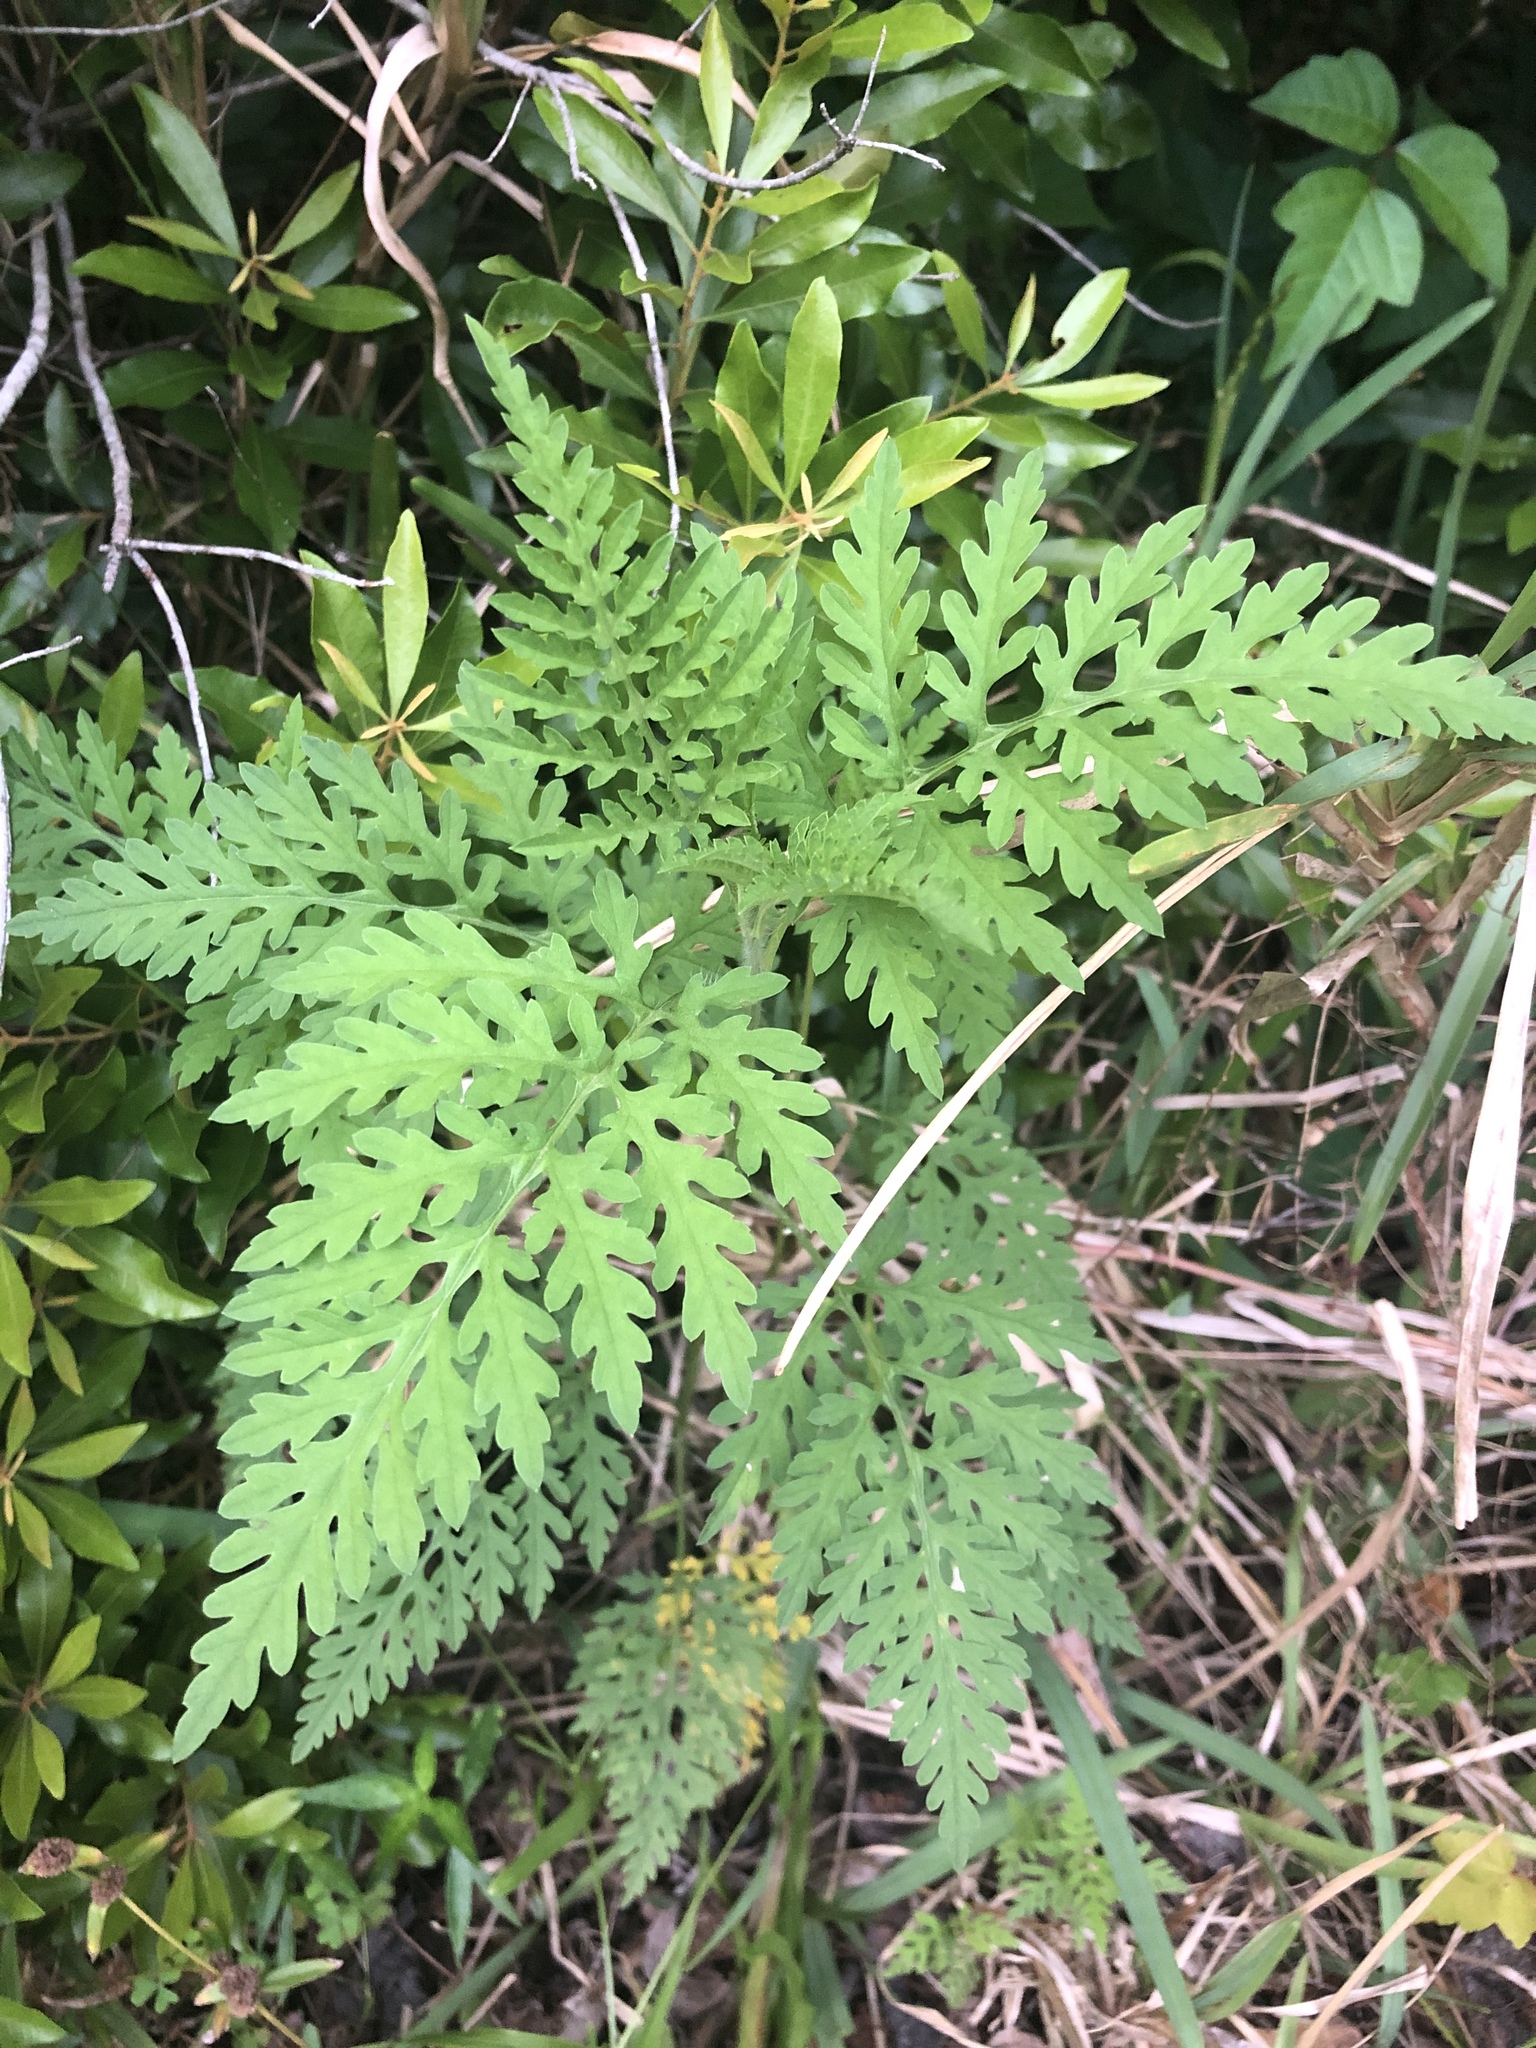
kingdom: Plantae
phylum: Tracheophyta
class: Magnoliopsida
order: Asterales
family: Asteraceae
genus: Ambrosia
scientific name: Ambrosia artemisiifolia
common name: Annual ragweed
